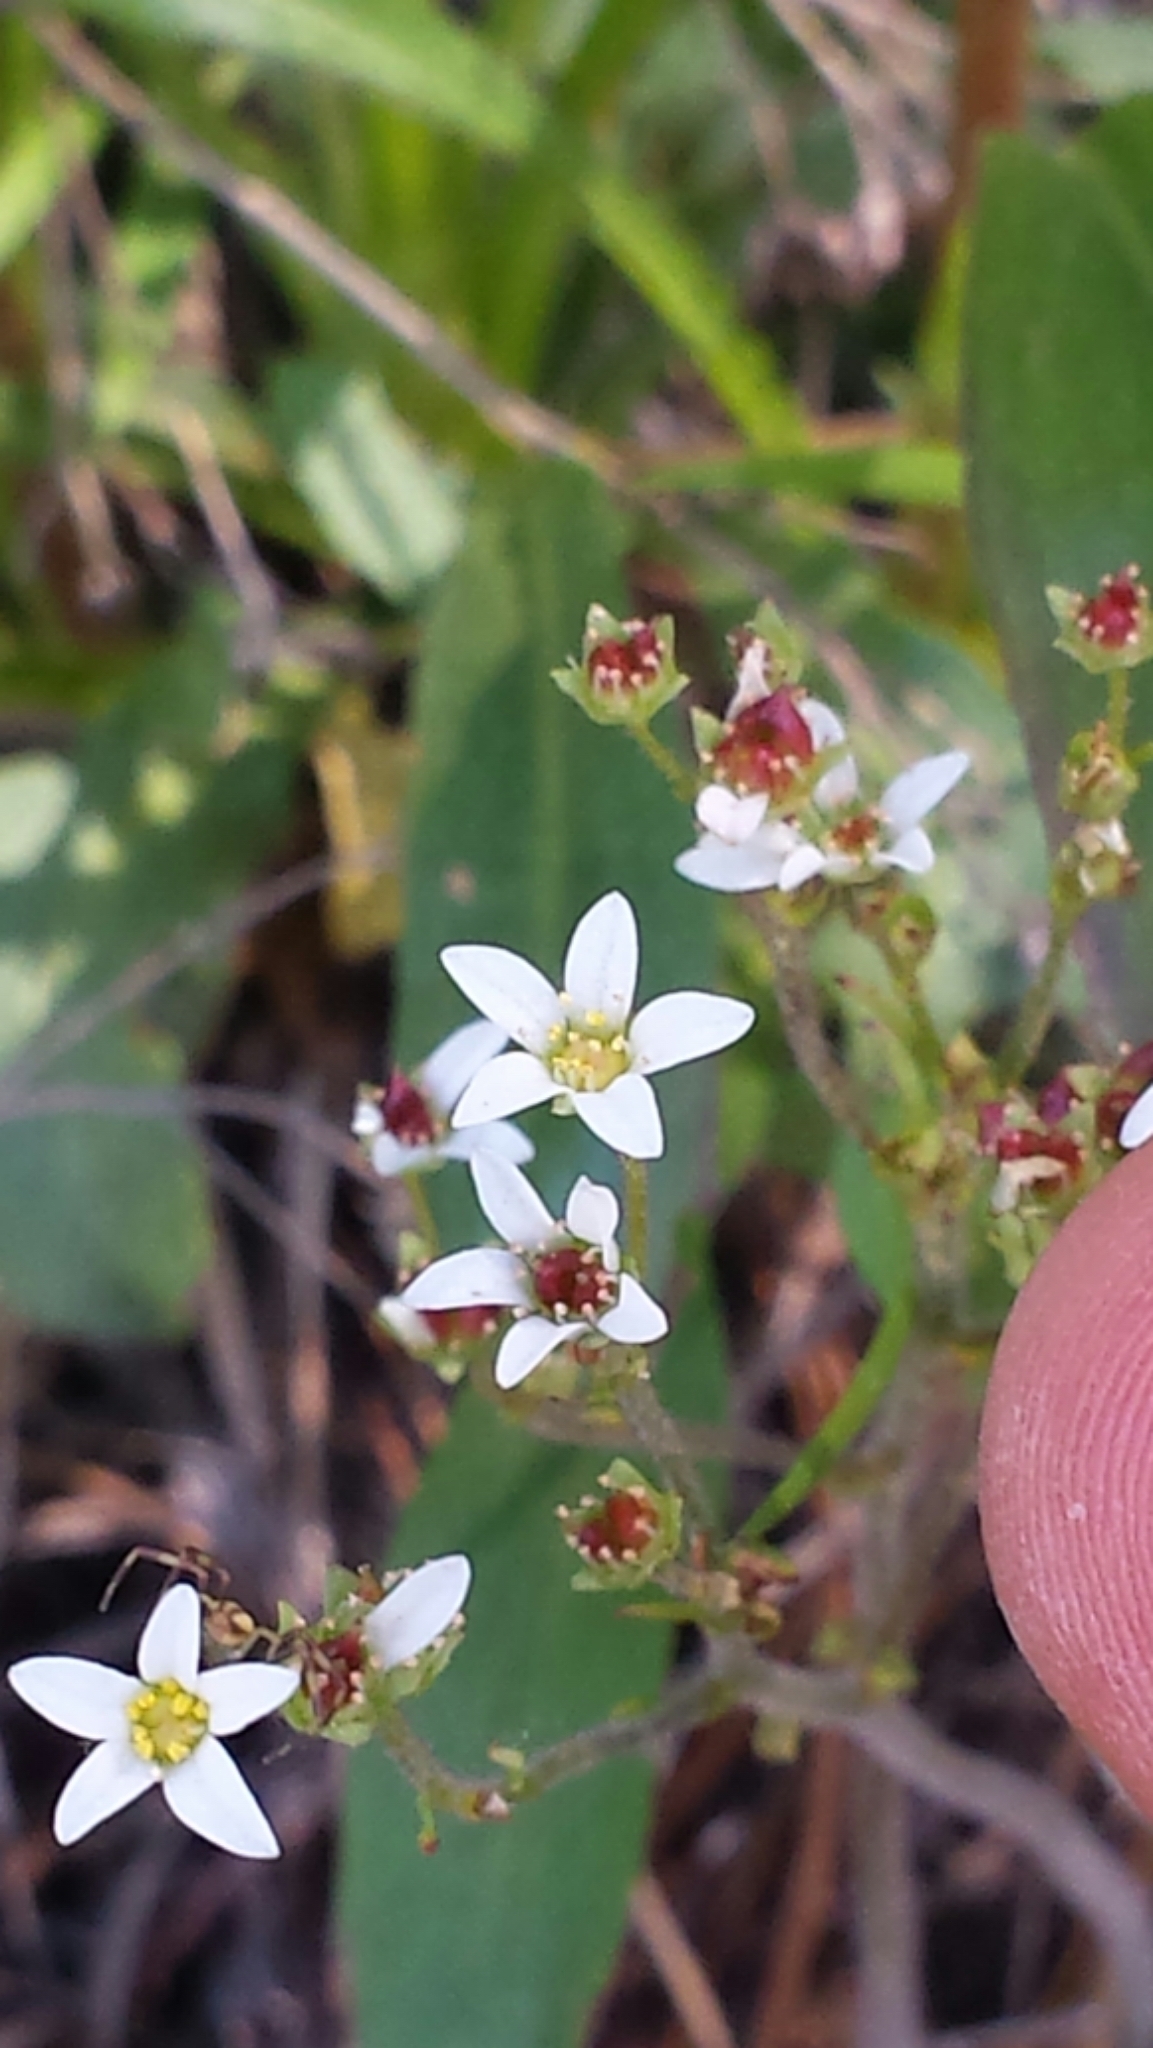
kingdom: Plantae
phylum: Tracheophyta
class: Magnoliopsida
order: Saxifragales
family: Saxifragaceae
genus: Micranthes
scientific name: Micranthes virginiensis
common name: Early saxifrage
